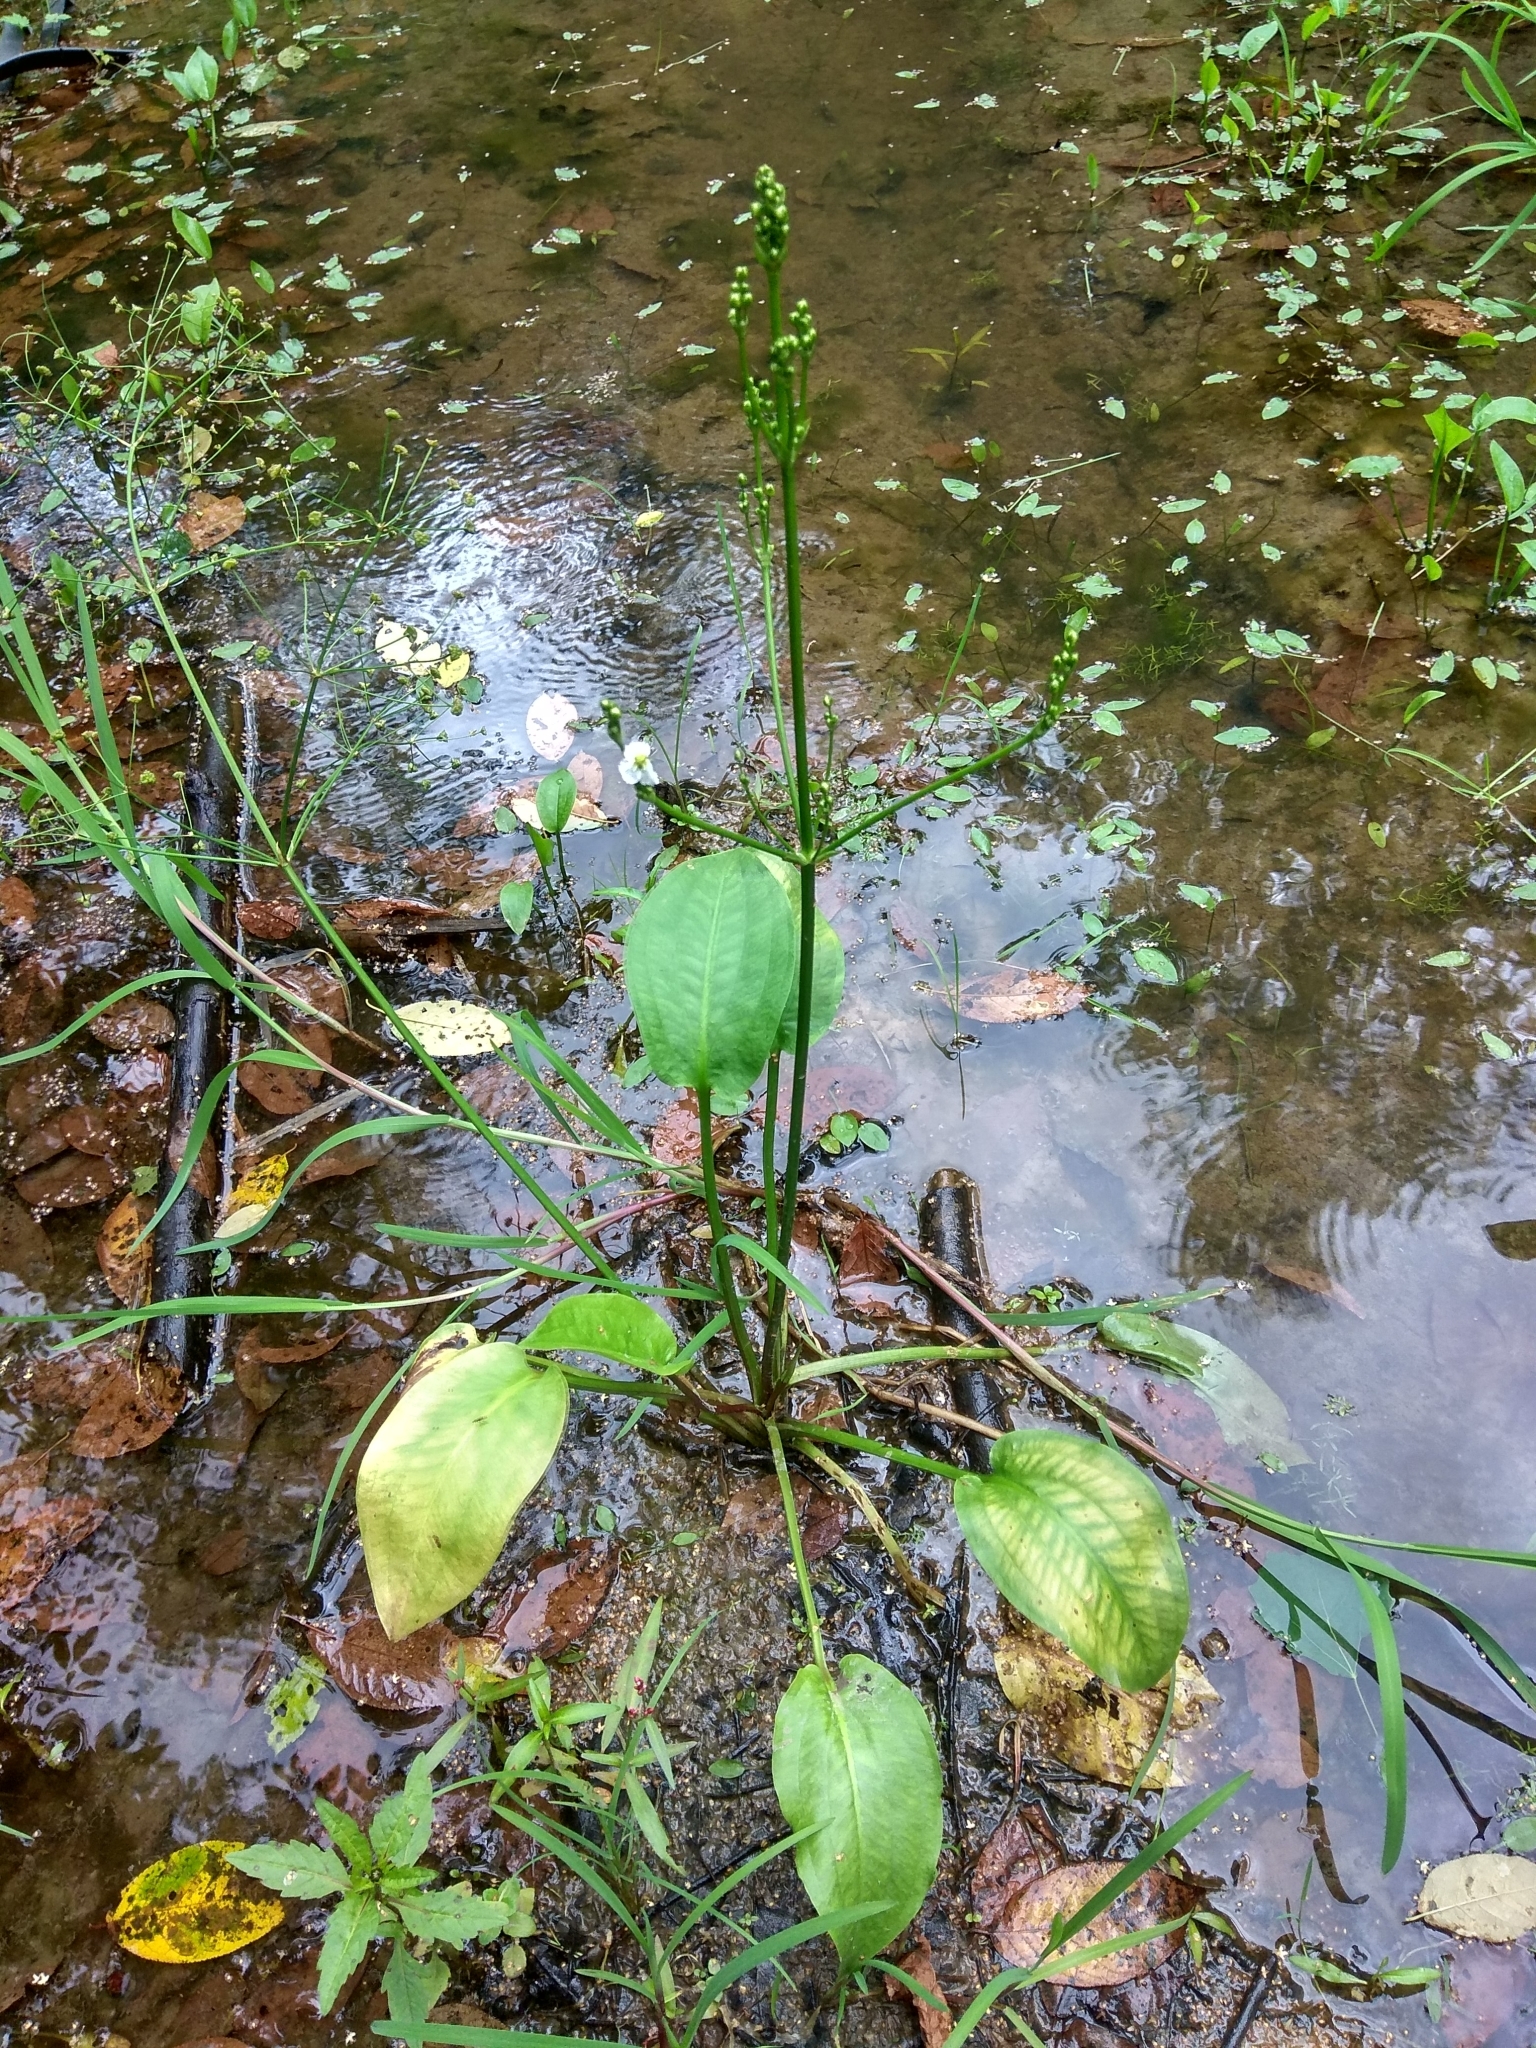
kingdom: Plantae
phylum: Tracheophyta
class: Liliopsida
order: Alismatales
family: Alismataceae
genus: Alisma
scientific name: Alisma plantago-aquatica
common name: Water-plantain
